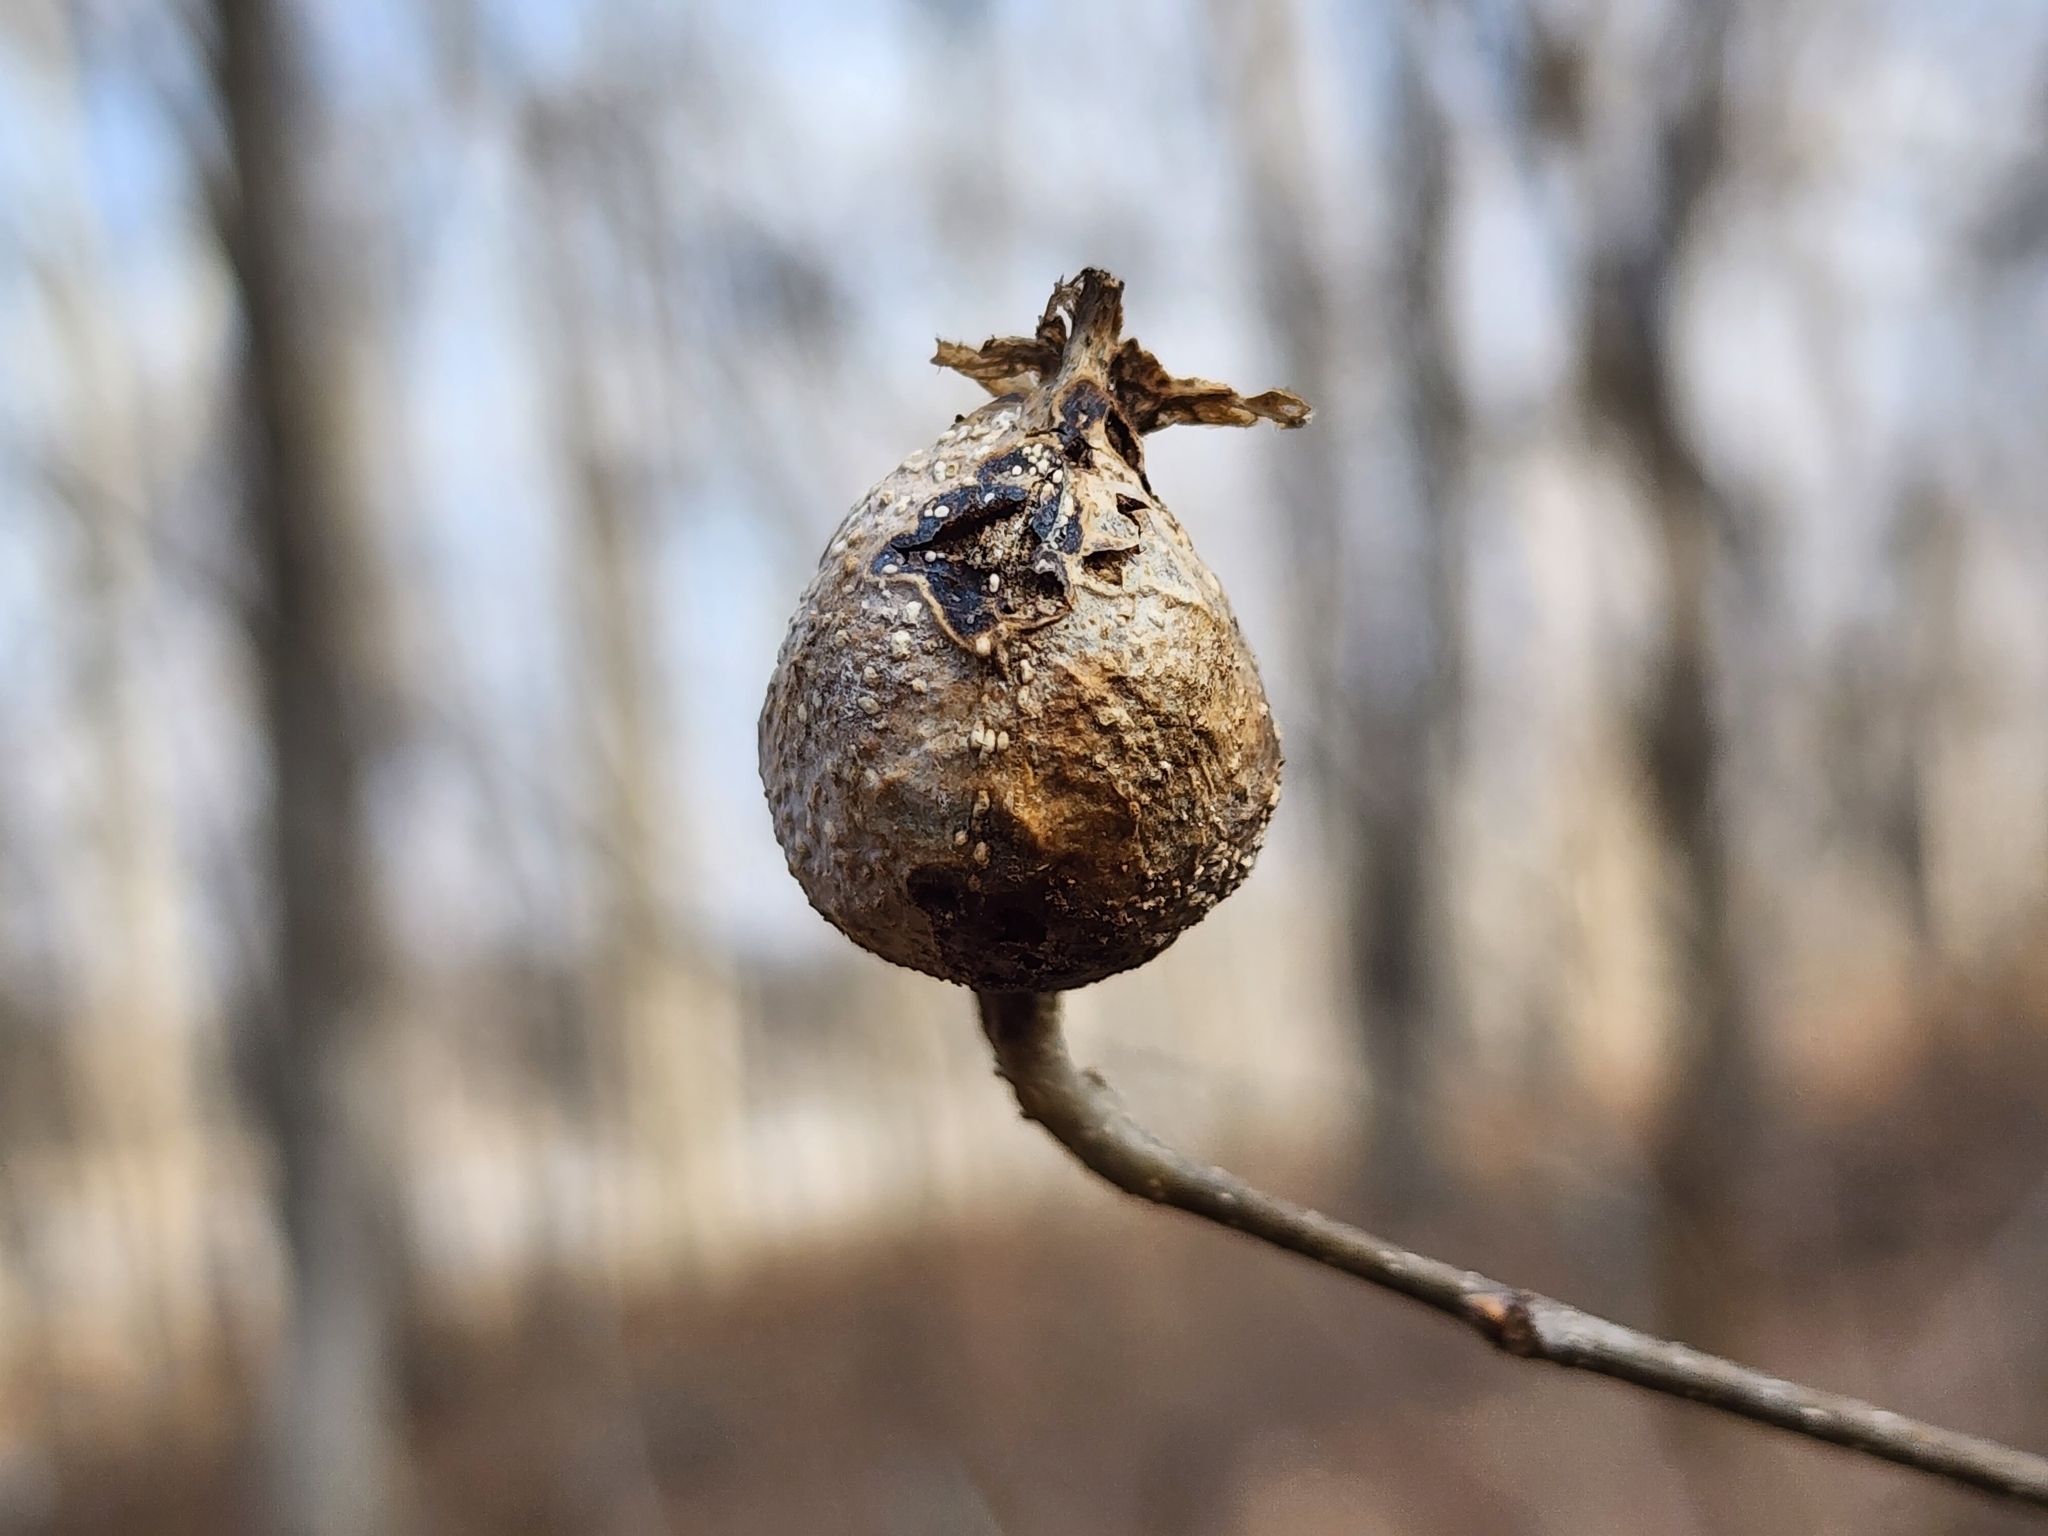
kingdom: Animalia
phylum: Arthropoda
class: Insecta
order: Hemiptera
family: Aphalaridae
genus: Pachypsylla
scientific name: Pachypsylla venusta
